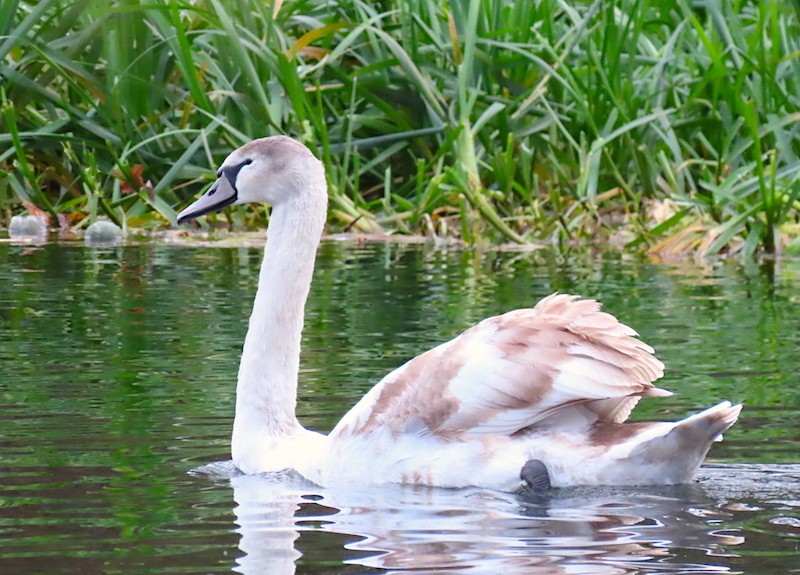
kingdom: Animalia
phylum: Chordata
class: Aves
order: Anseriformes
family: Anatidae
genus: Cygnus
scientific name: Cygnus olor
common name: Mute swan
